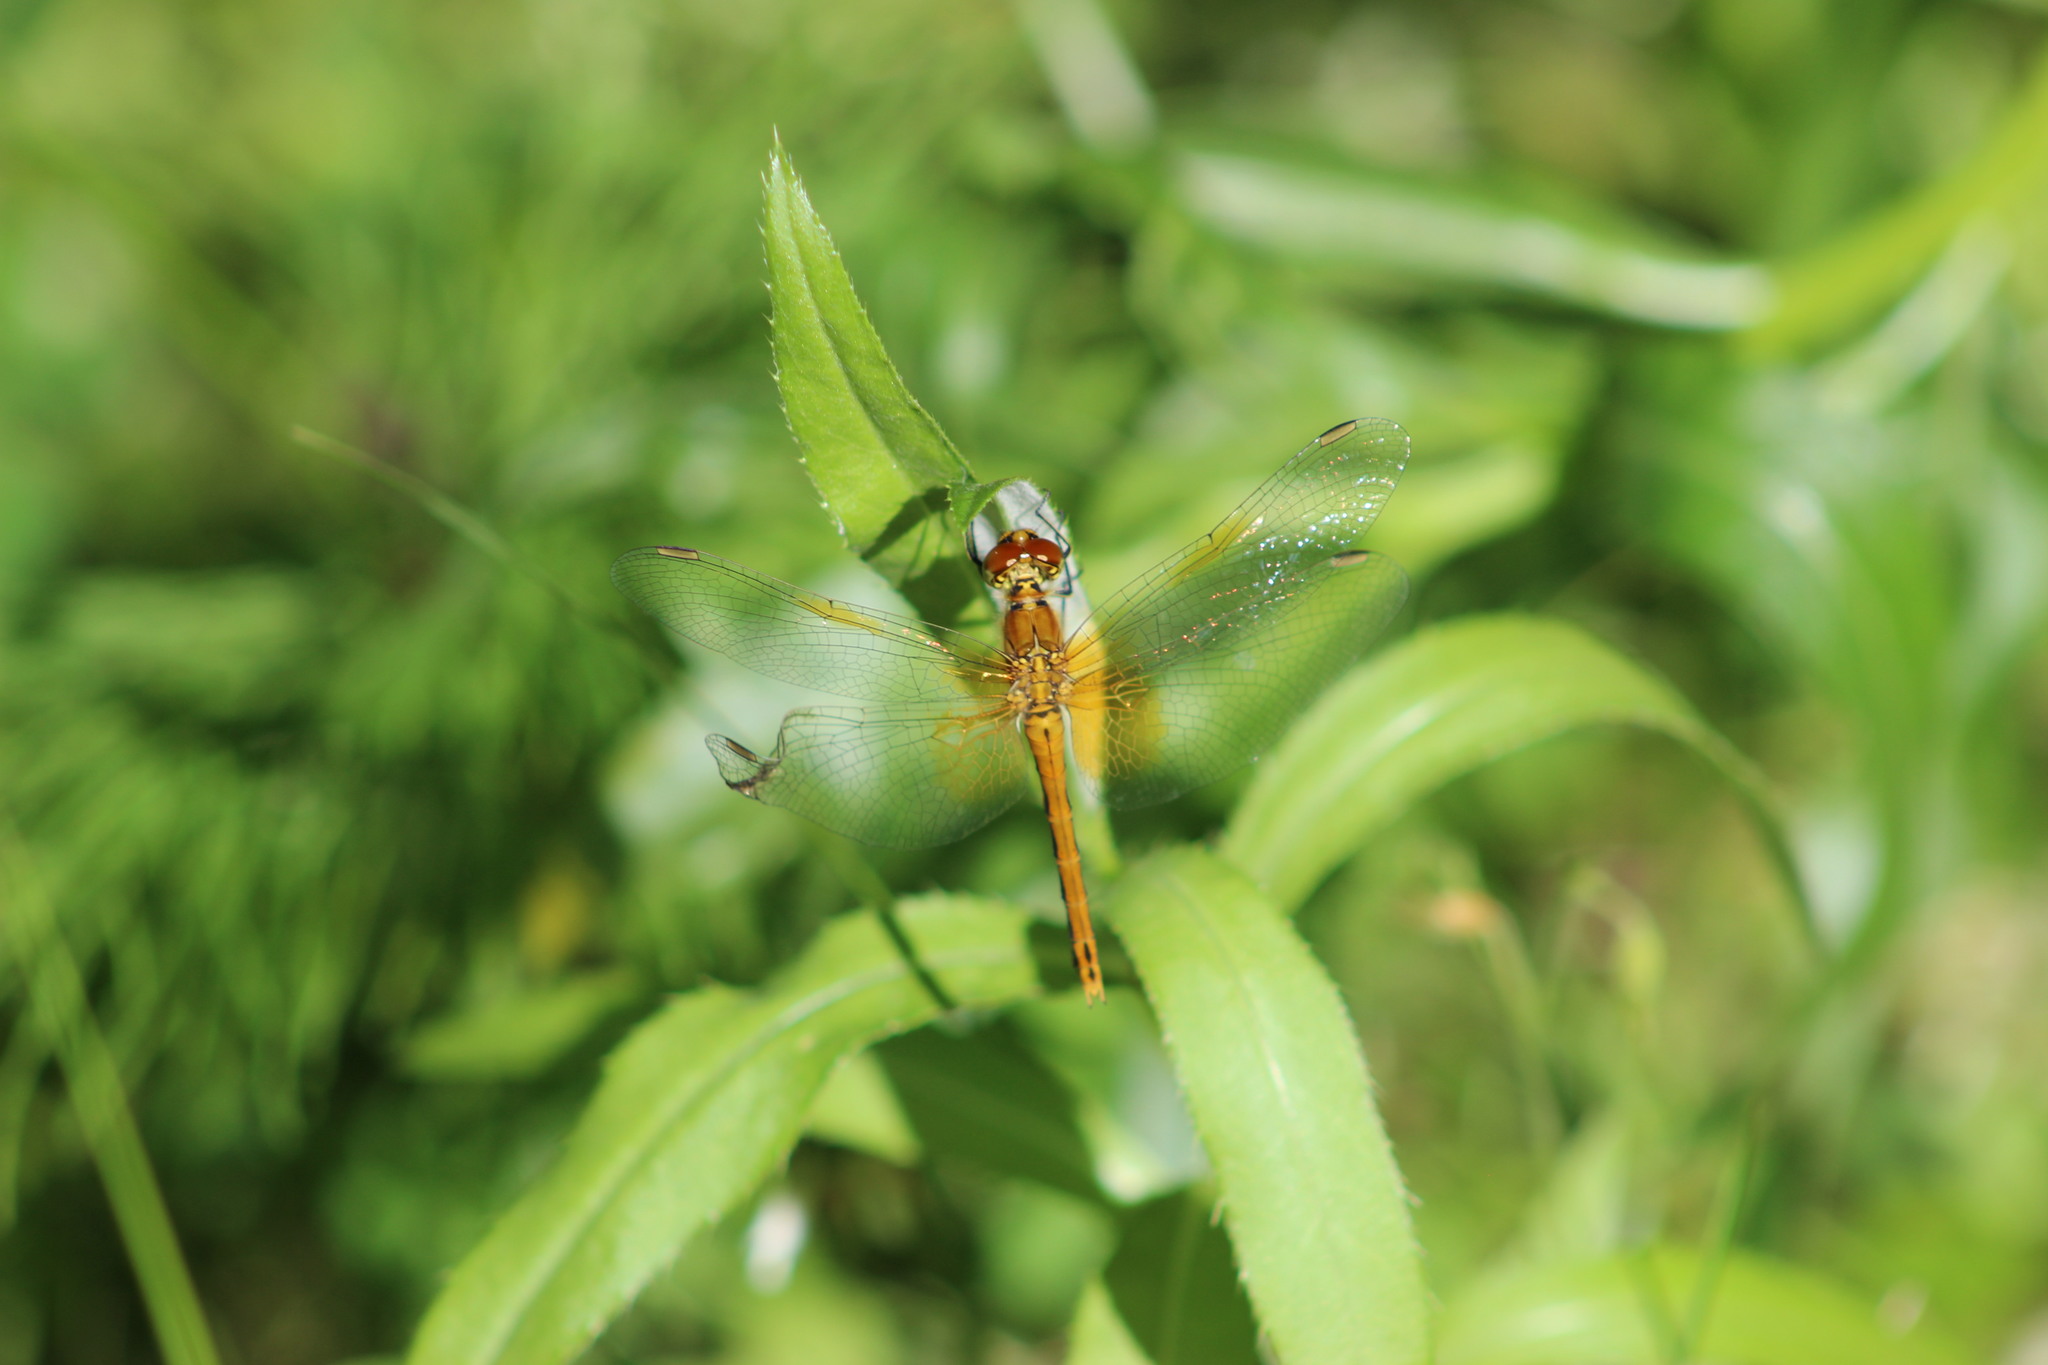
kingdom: Animalia
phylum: Arthropoda
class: Insecta
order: Odonata
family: Libellulidae
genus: Sympetrum
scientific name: Sympetrum flaveolum
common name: Yellow-winged darter
